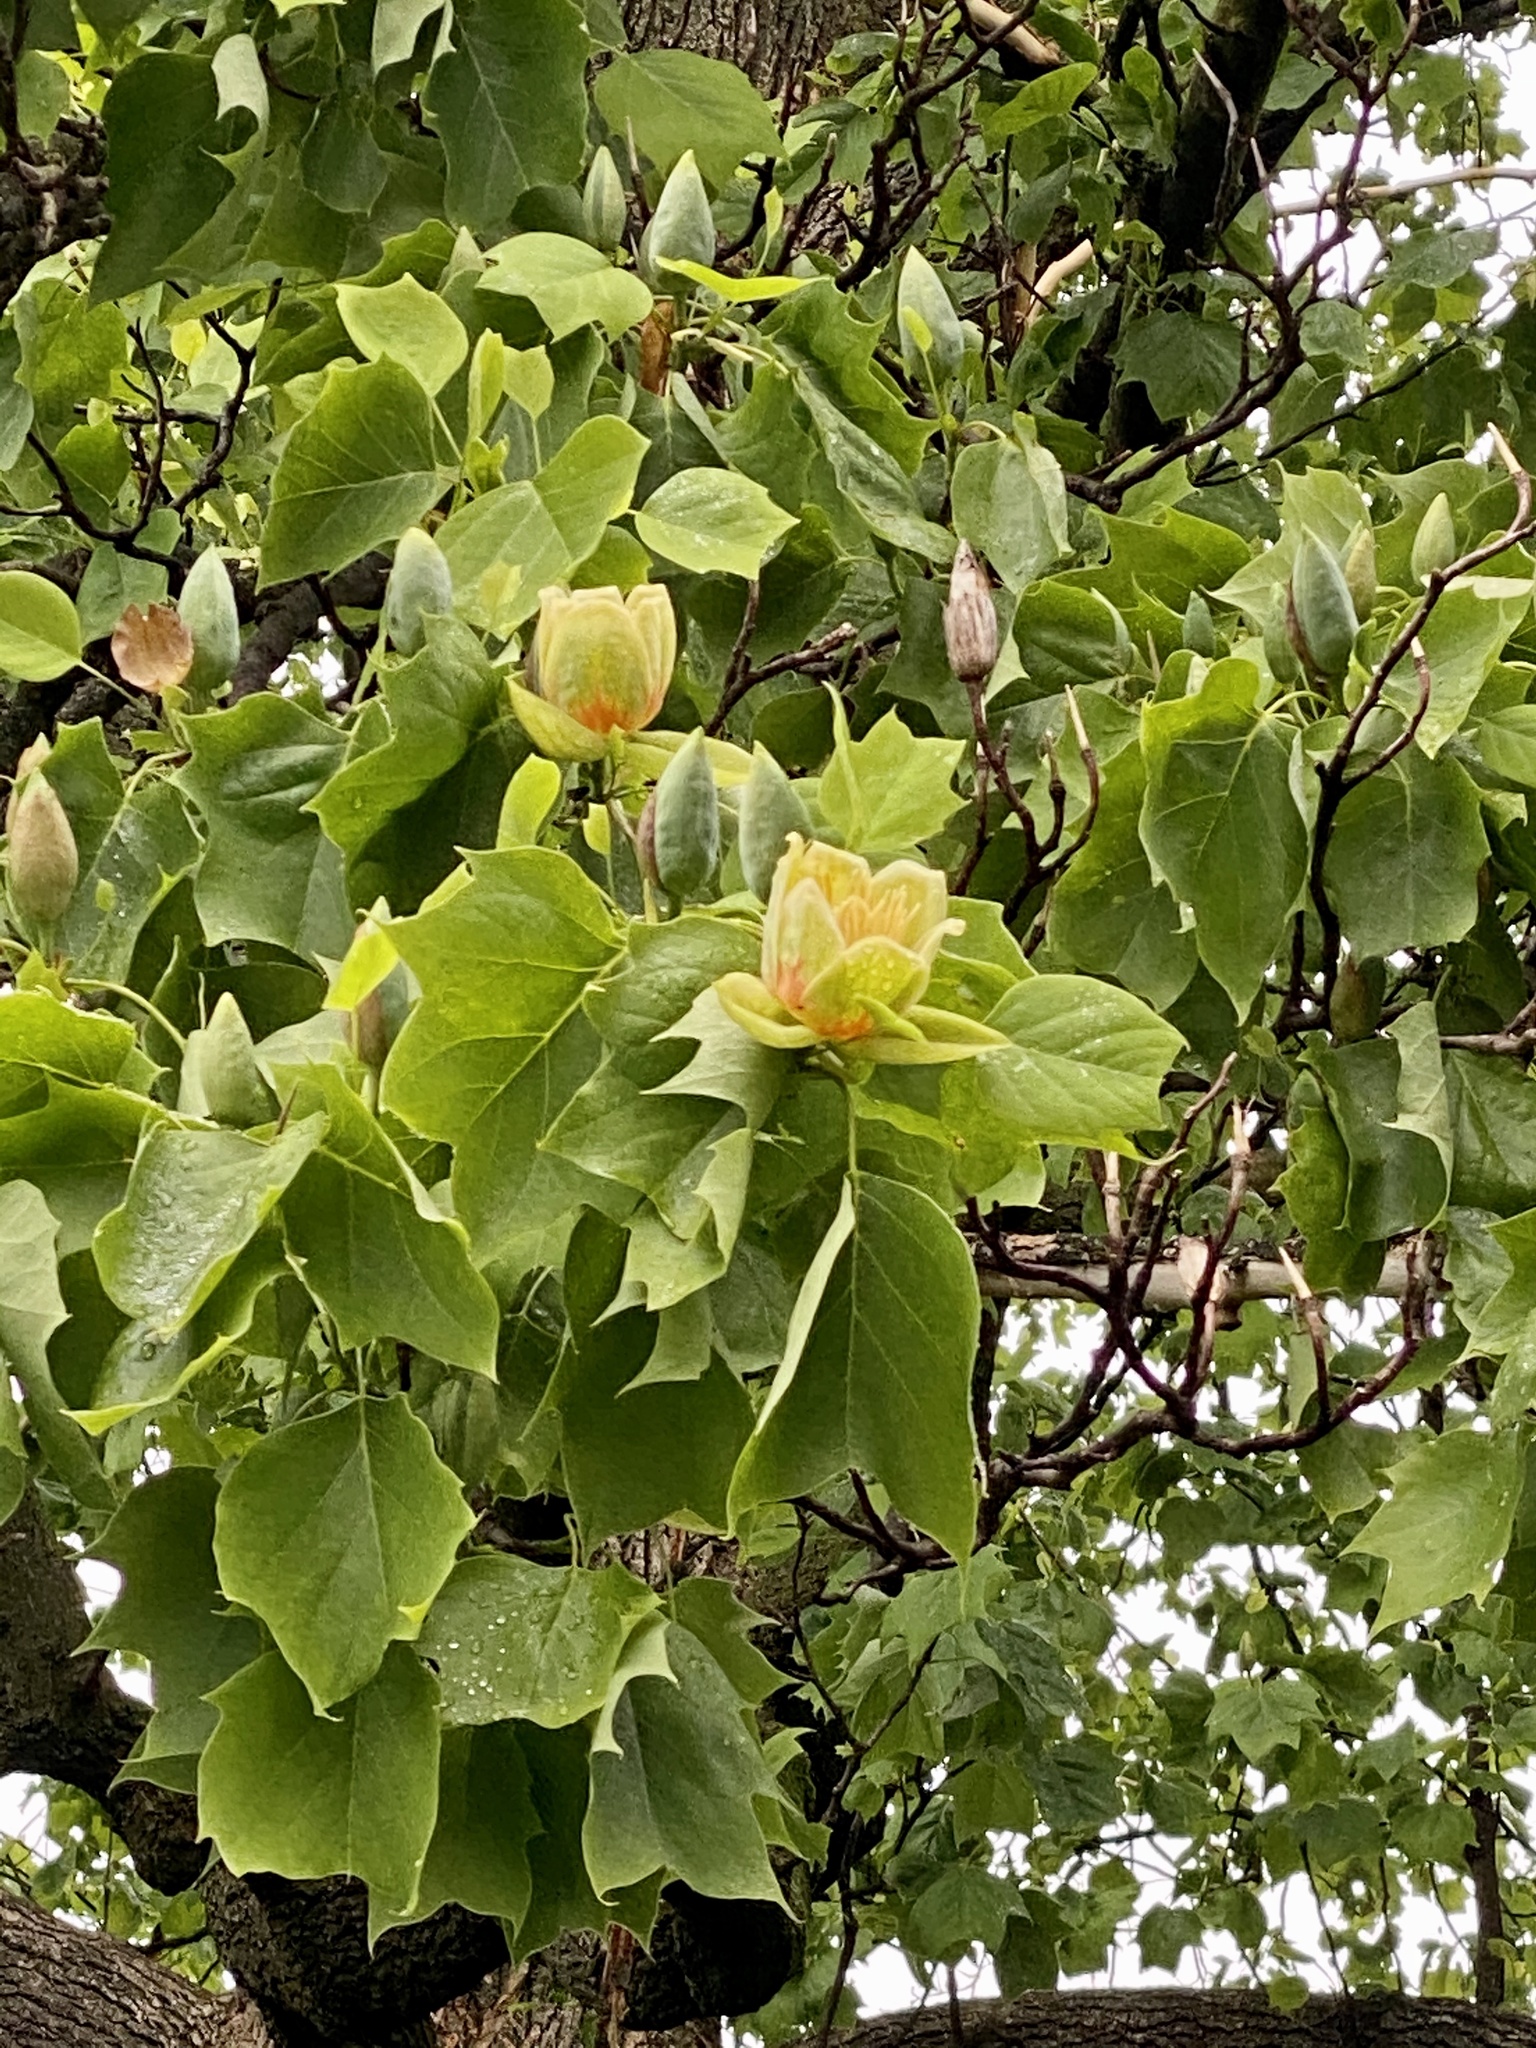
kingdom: Plantae
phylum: Tracheophyta
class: Magnoliopsida
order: Magnoliales
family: Magnoliaceae
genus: Liriodendron
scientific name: Liriodendron tulipifera
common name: Tulip tree
